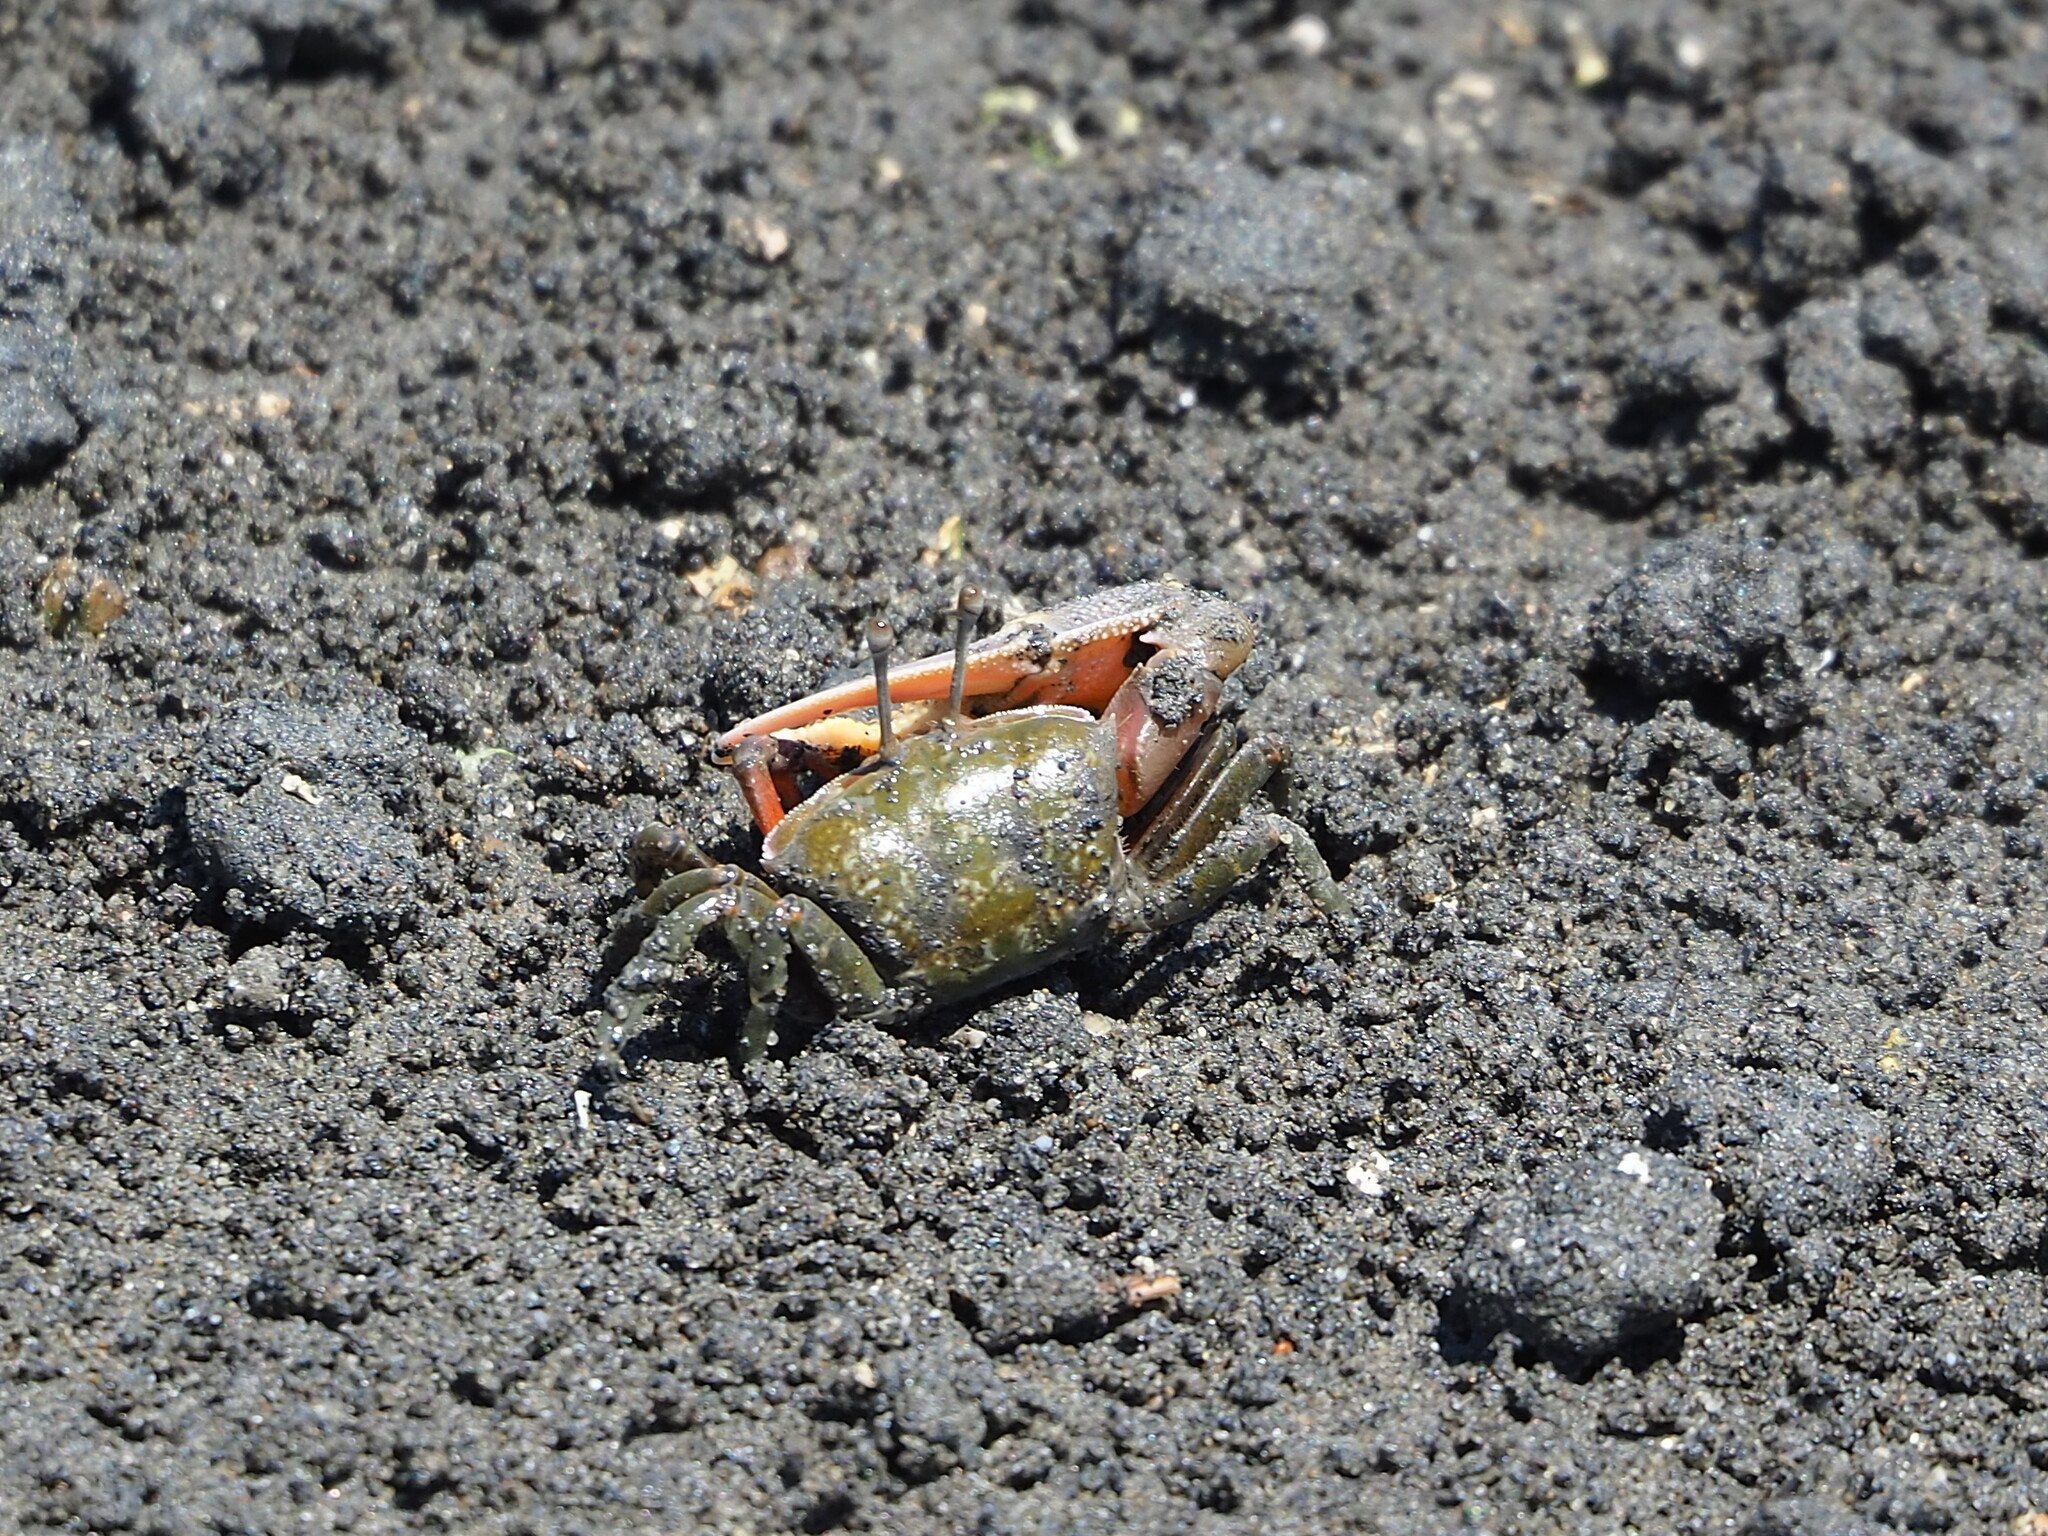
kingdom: Animalia
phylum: Arthropoda
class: Malacostraca
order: Decapoda
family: Ocypodidae
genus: Gelasimus
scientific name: Gelasimus borealis
